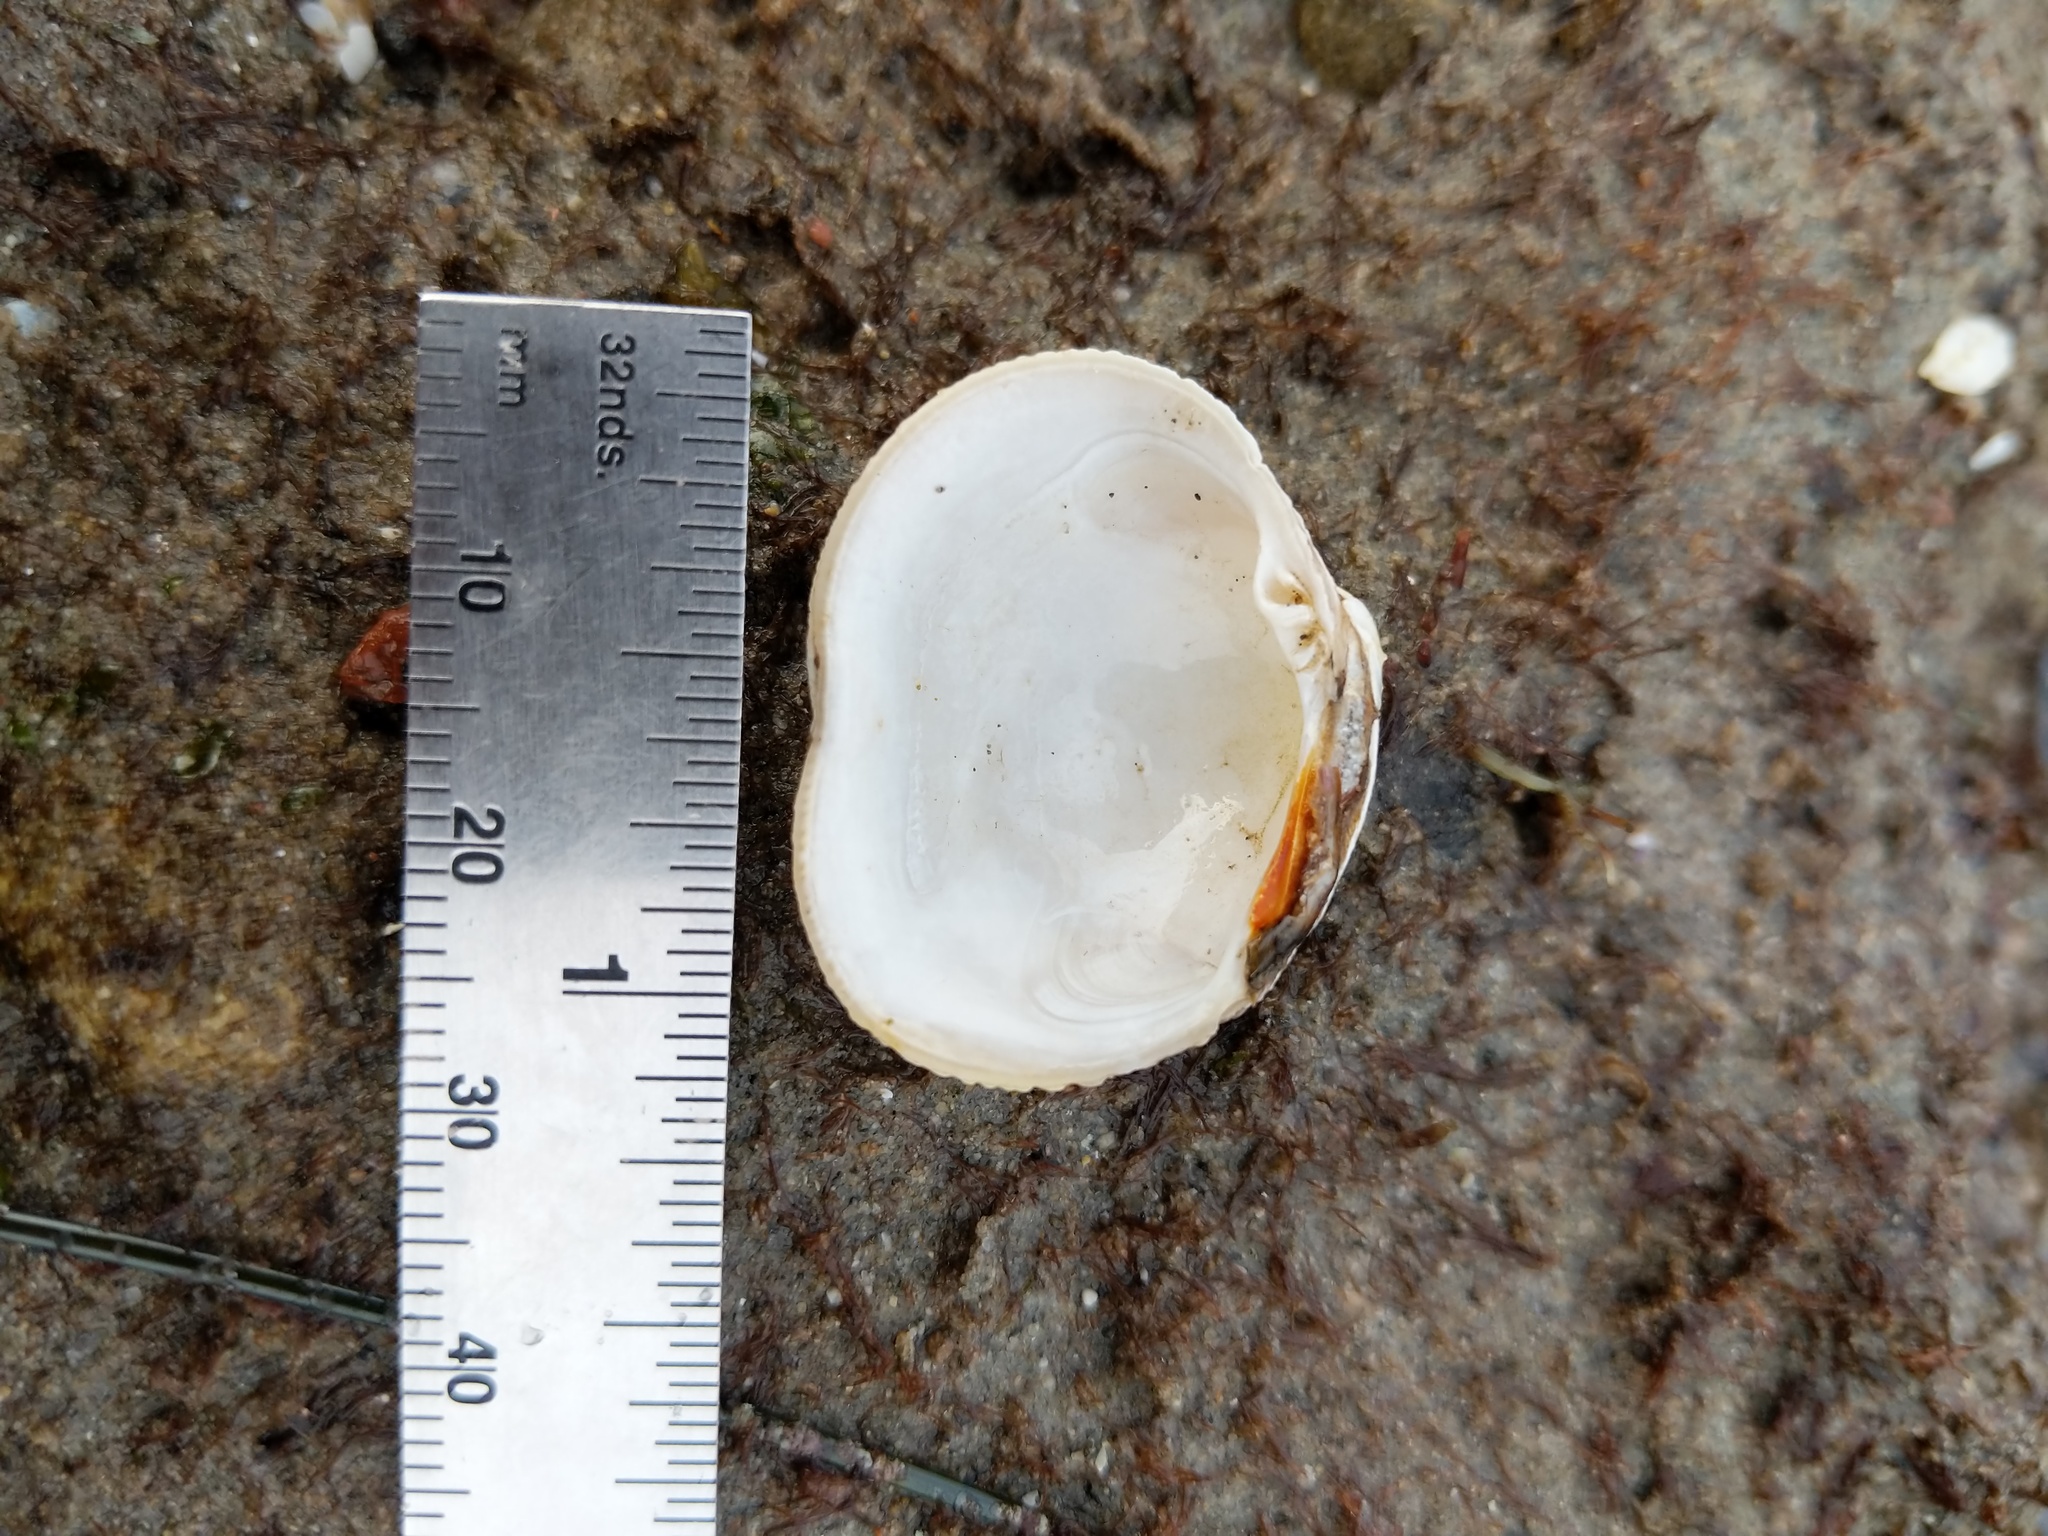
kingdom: Animalia
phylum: Mollusca
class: Bivalvia
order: Venerida
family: Veneridae
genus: Leukoma
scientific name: Leukoma staminea
